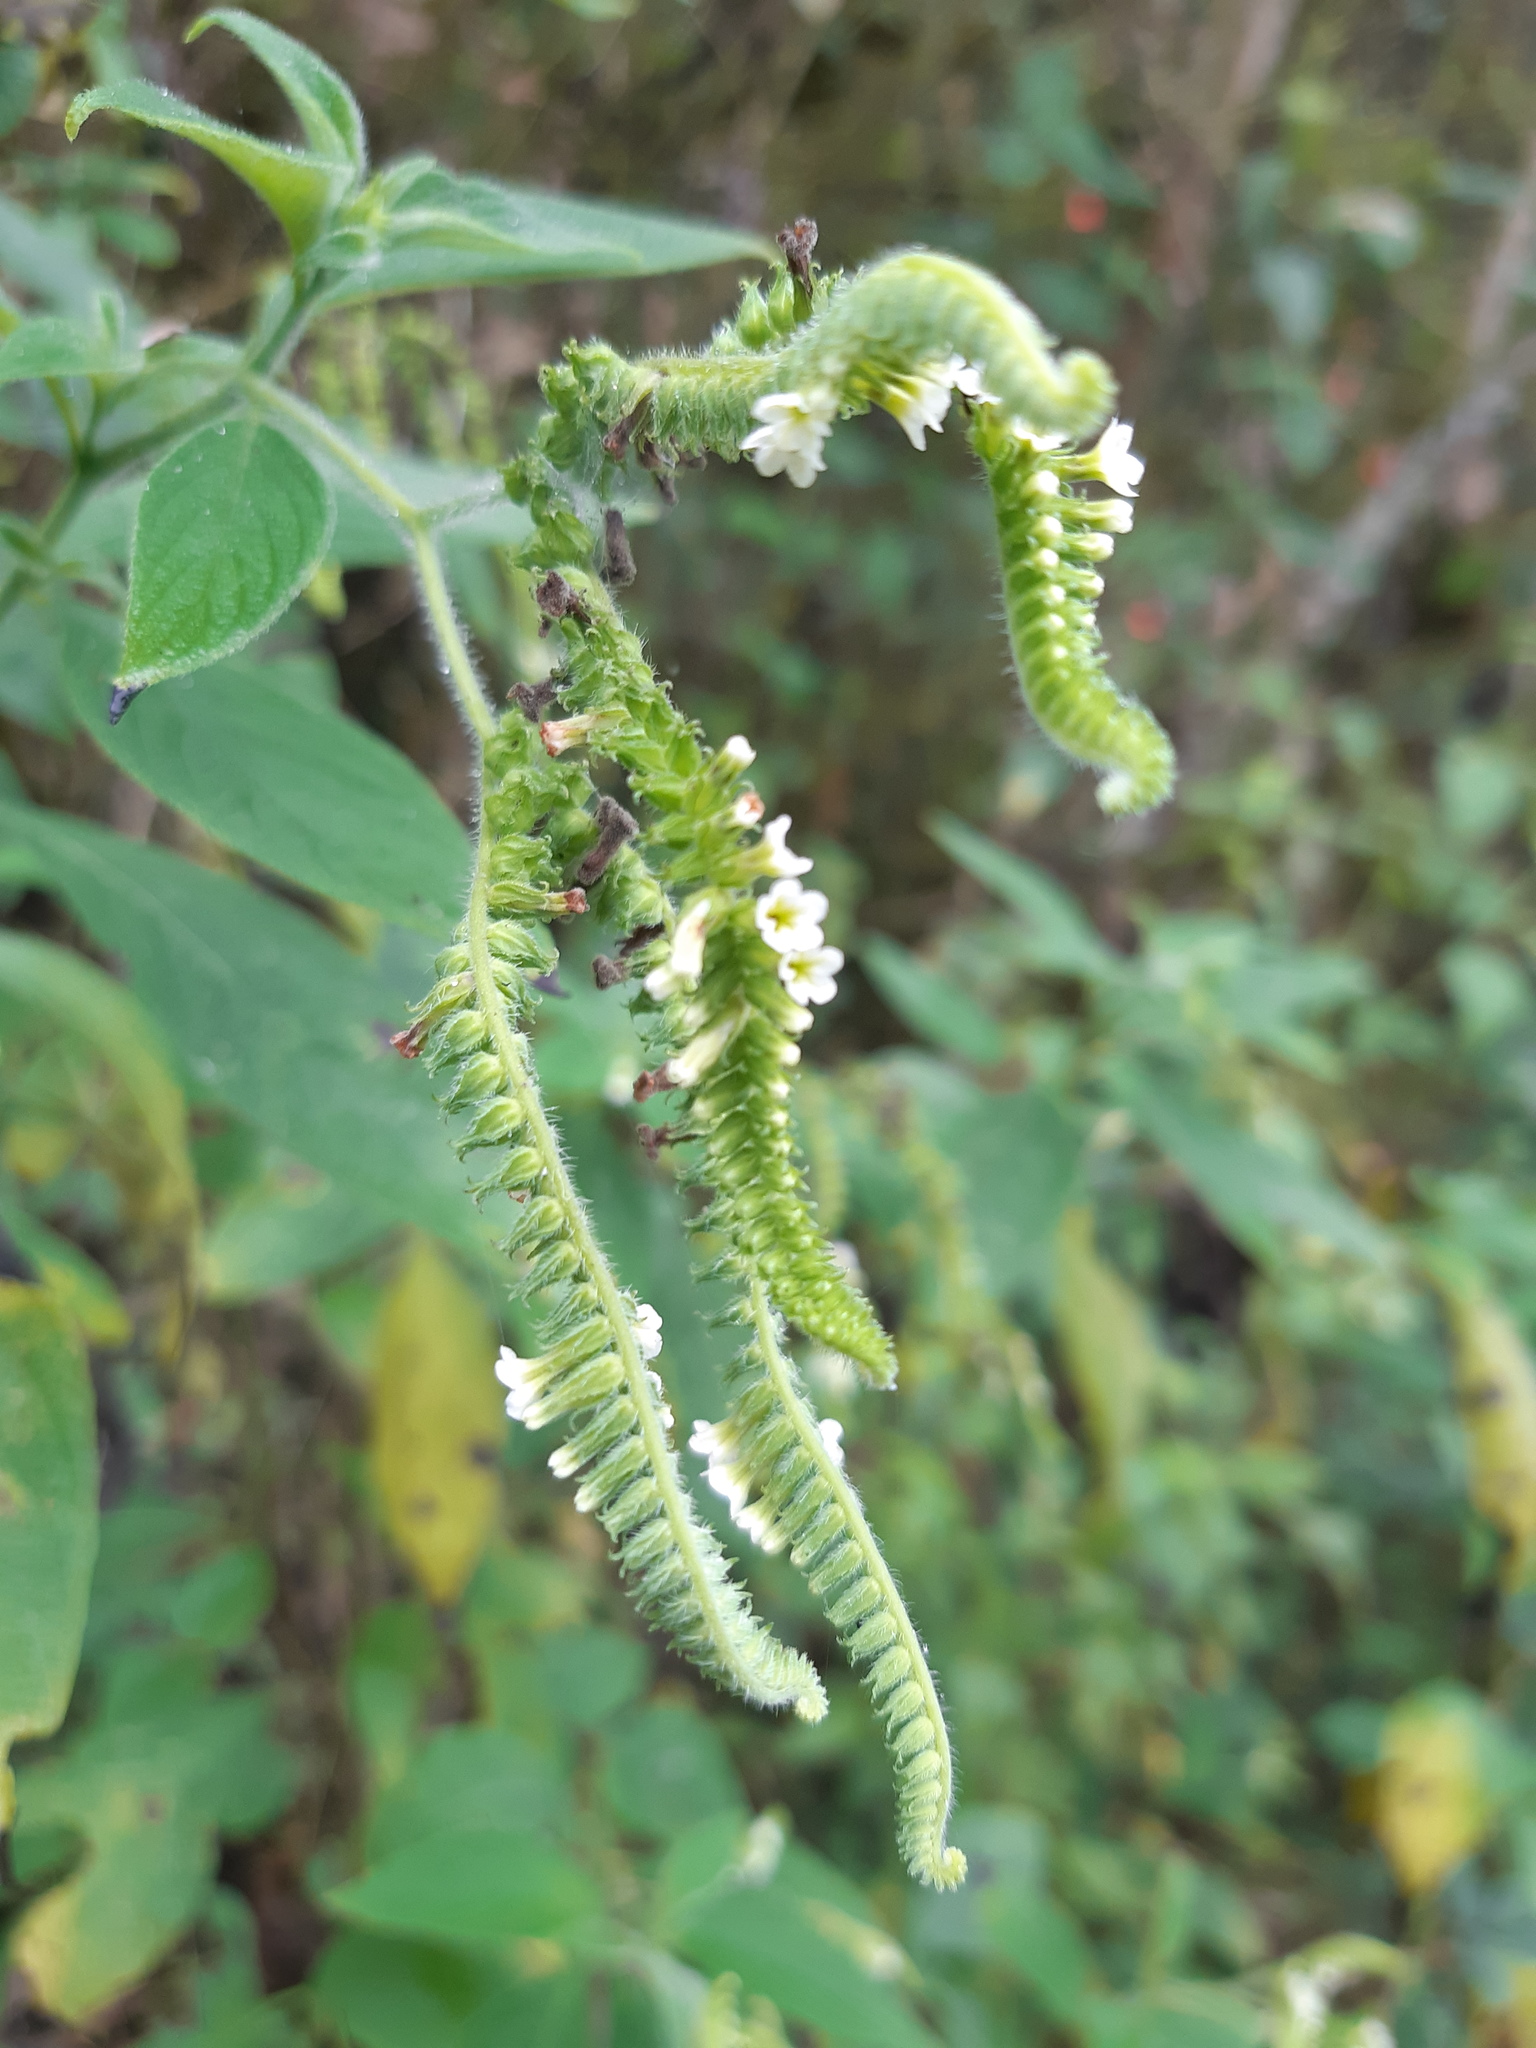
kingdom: Plantae
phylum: Tracheophyta
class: Magnoliopsida
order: Boraginales
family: Heliotropiaceae
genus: Heliotropium
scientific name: Heliotropium rufipilum
